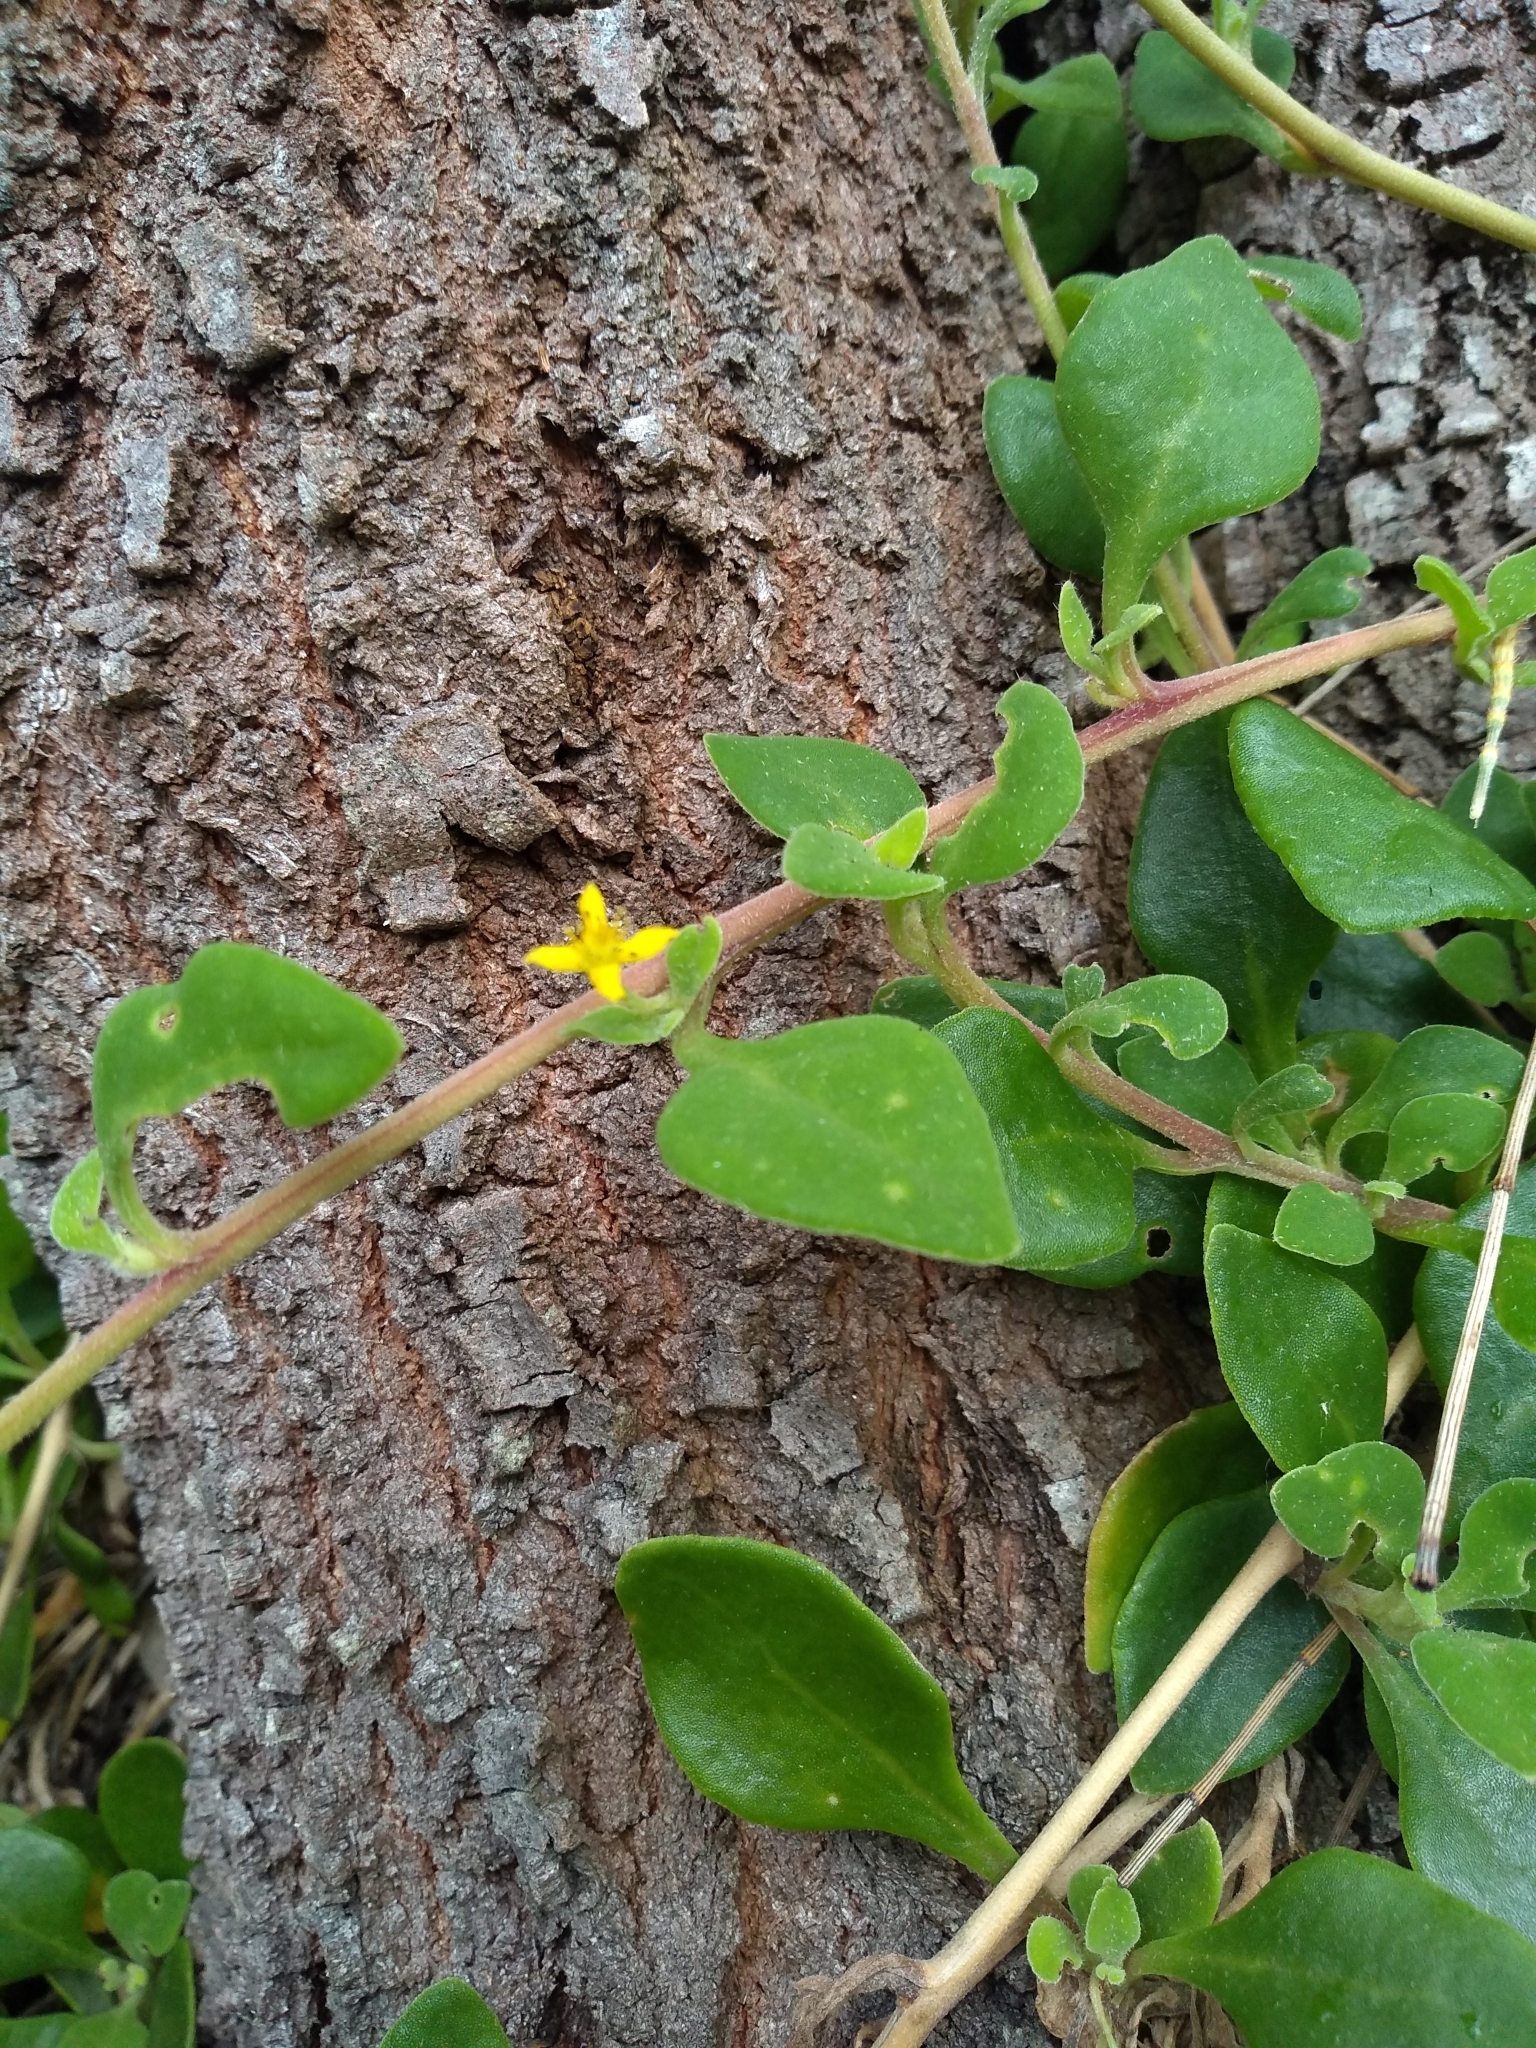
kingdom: Plantae
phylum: Tracheophyta
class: Magnoliopsida
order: Caryophyllales
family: Aizoaceae
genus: Tetragonia
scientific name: Tetragonia implexicoma
